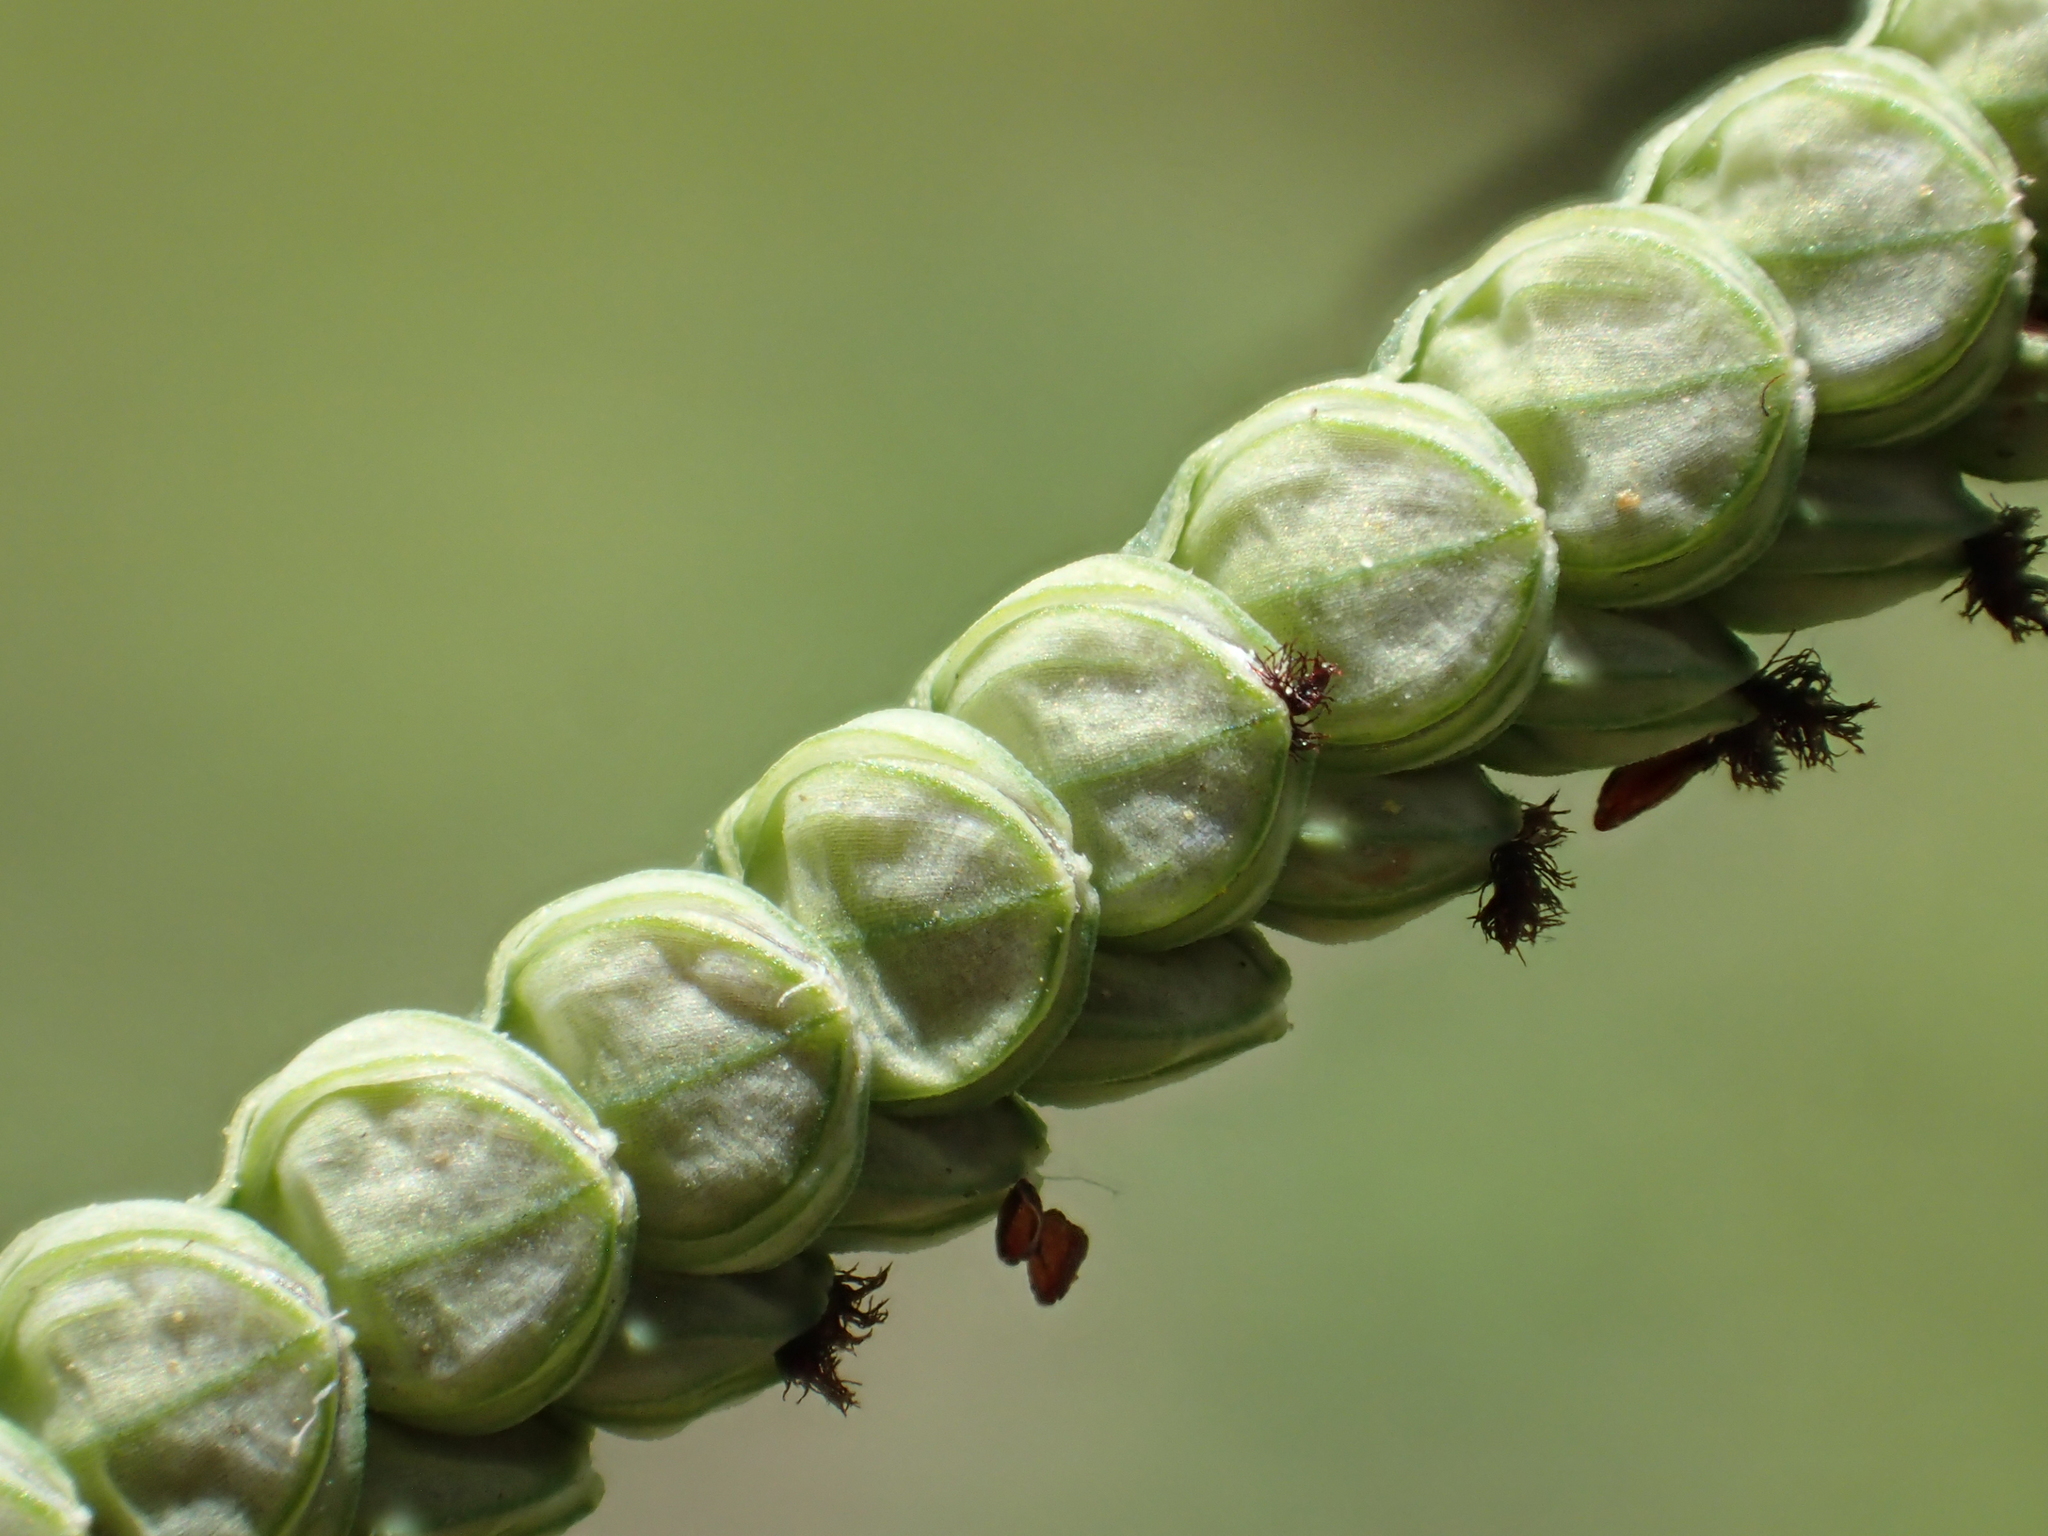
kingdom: Plantae
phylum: Tracheophyta
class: Liliopsida
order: Poales
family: Poaceae
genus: Paspalum
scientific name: Paspalum orbiculare
